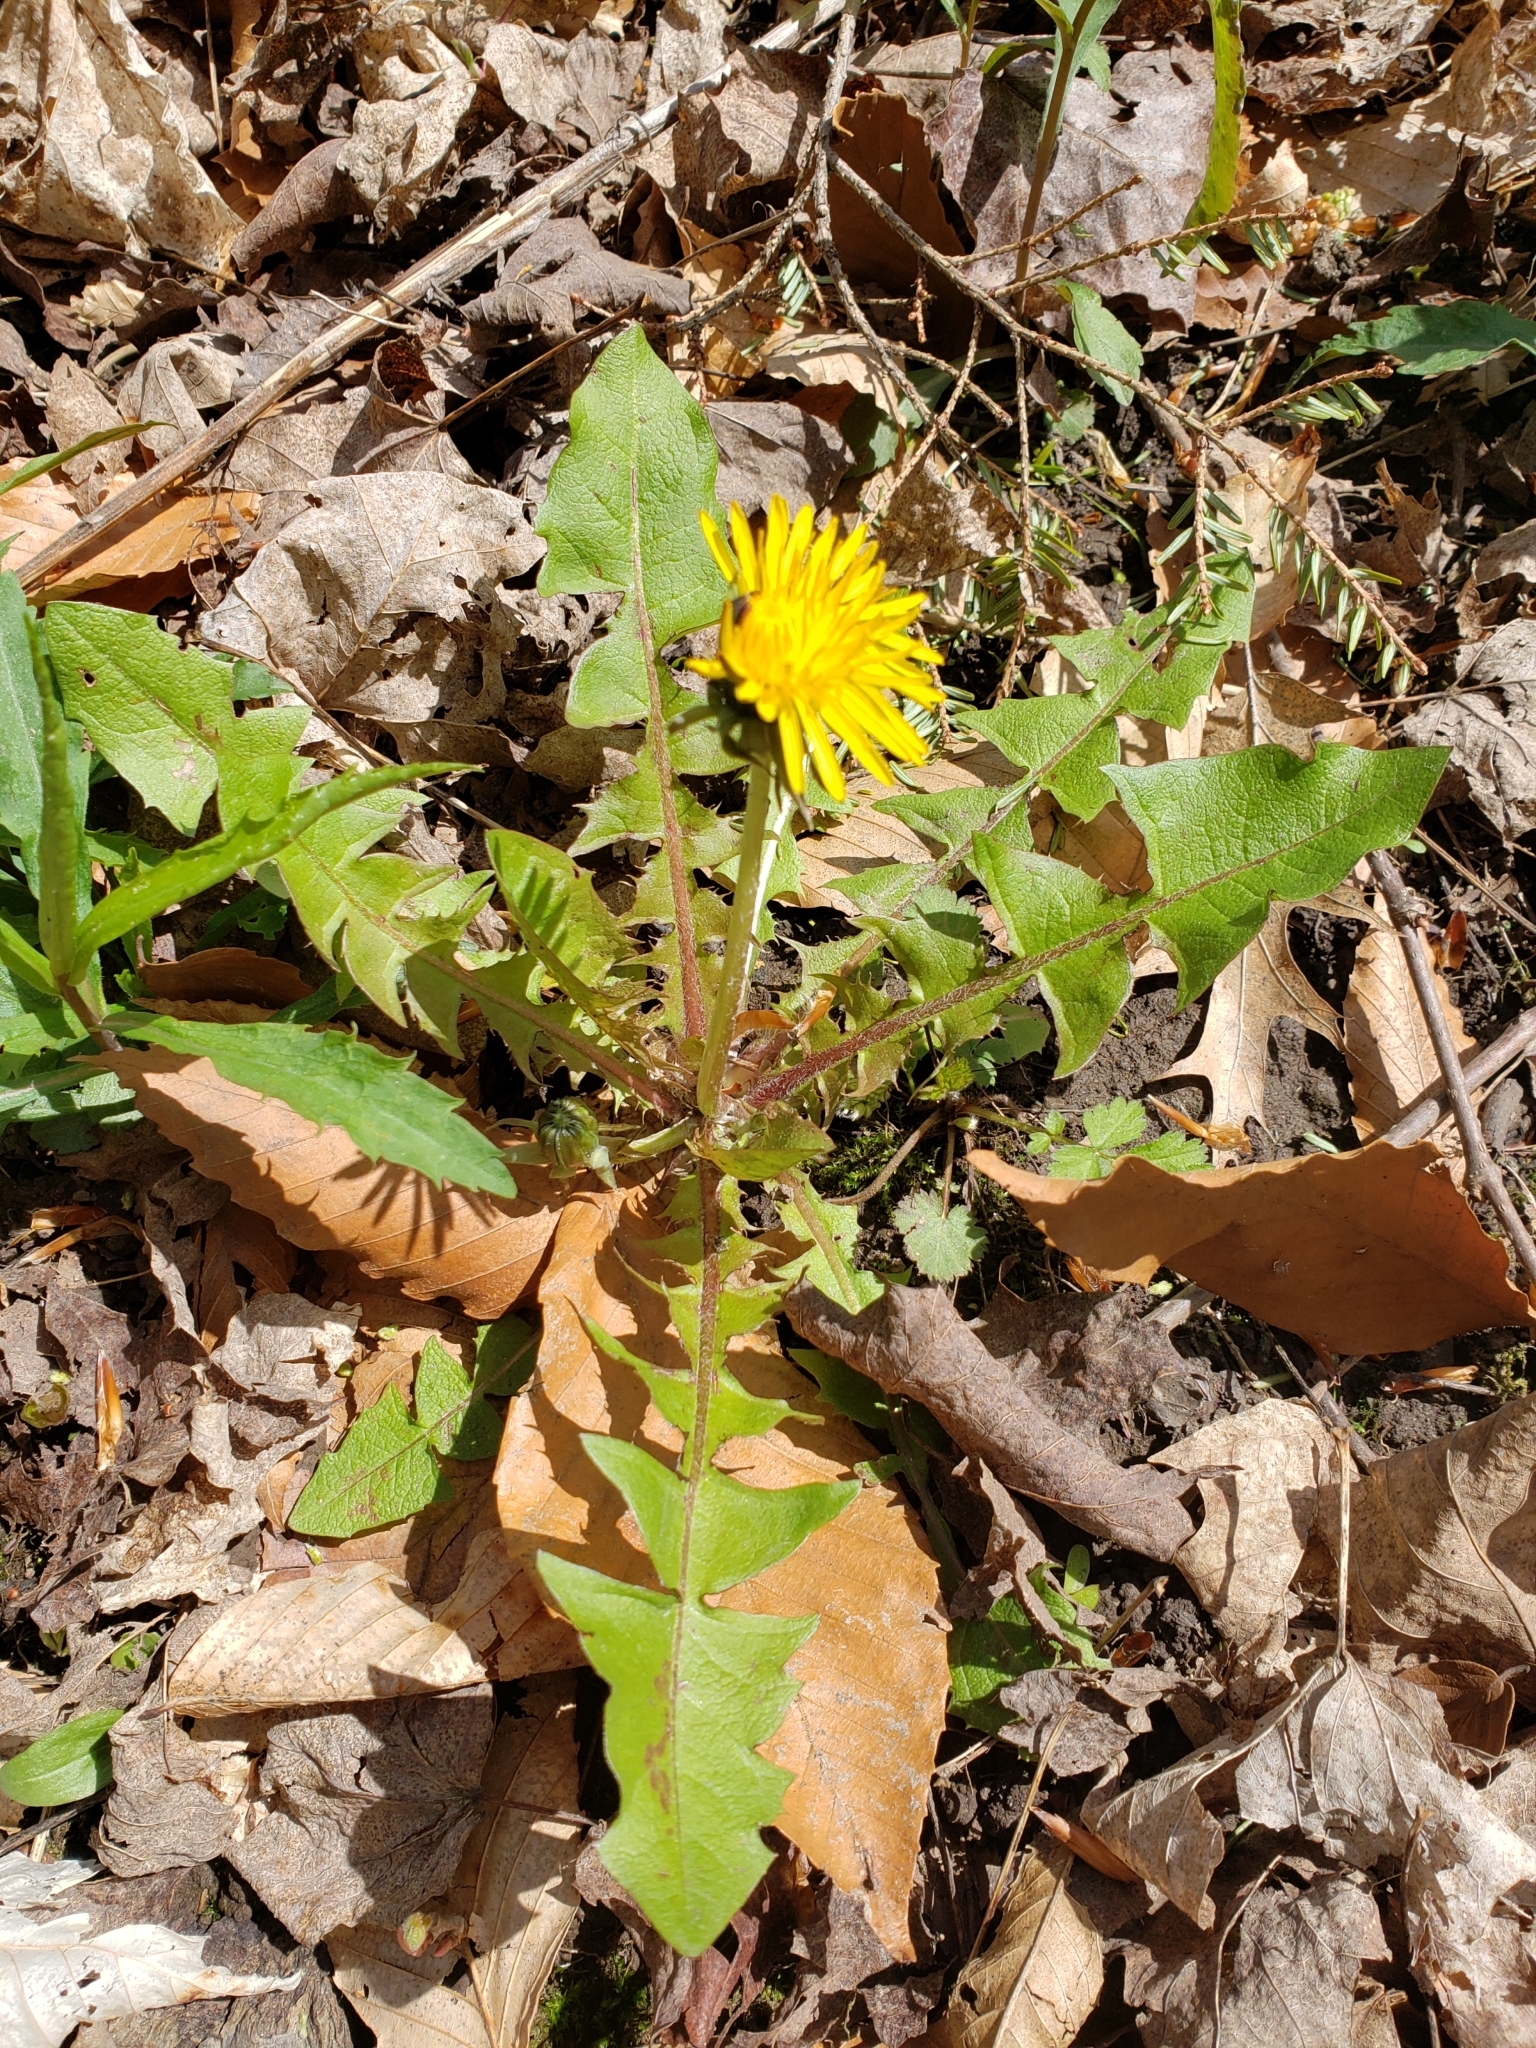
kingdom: Plantae
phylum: Tracheophyta
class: Magnoliopsida
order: Asterales
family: Asteraceae
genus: Taraxacum
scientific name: Taraxacum officinale
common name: Common dandelion
